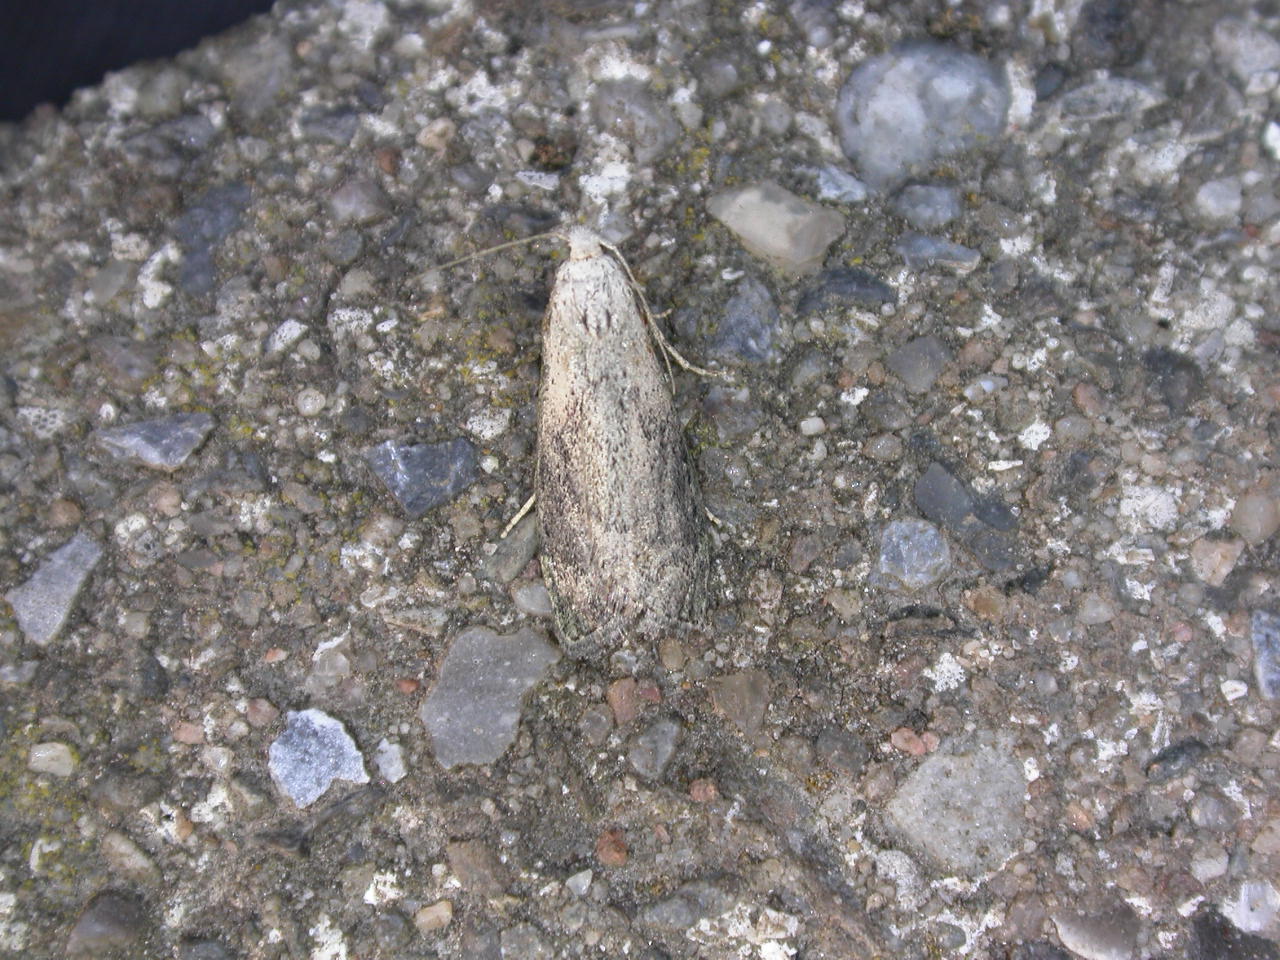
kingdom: Animalia
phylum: Arthropoda
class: Insecta
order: Lepidoptera
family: Pyralidae
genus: Aphomia
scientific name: Aphomia sociella
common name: Bee moth
